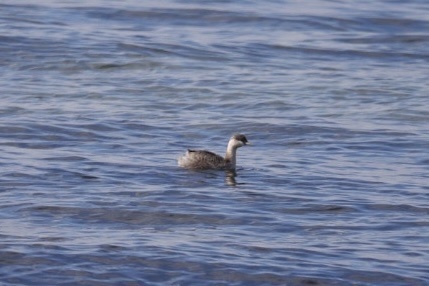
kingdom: Animalia
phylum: Chordata
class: Aves
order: Podicipediformes
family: Podicipedidae
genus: Poliocephalus
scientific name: Poliocephalus poliocephalus
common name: Hoary-headed grebe
